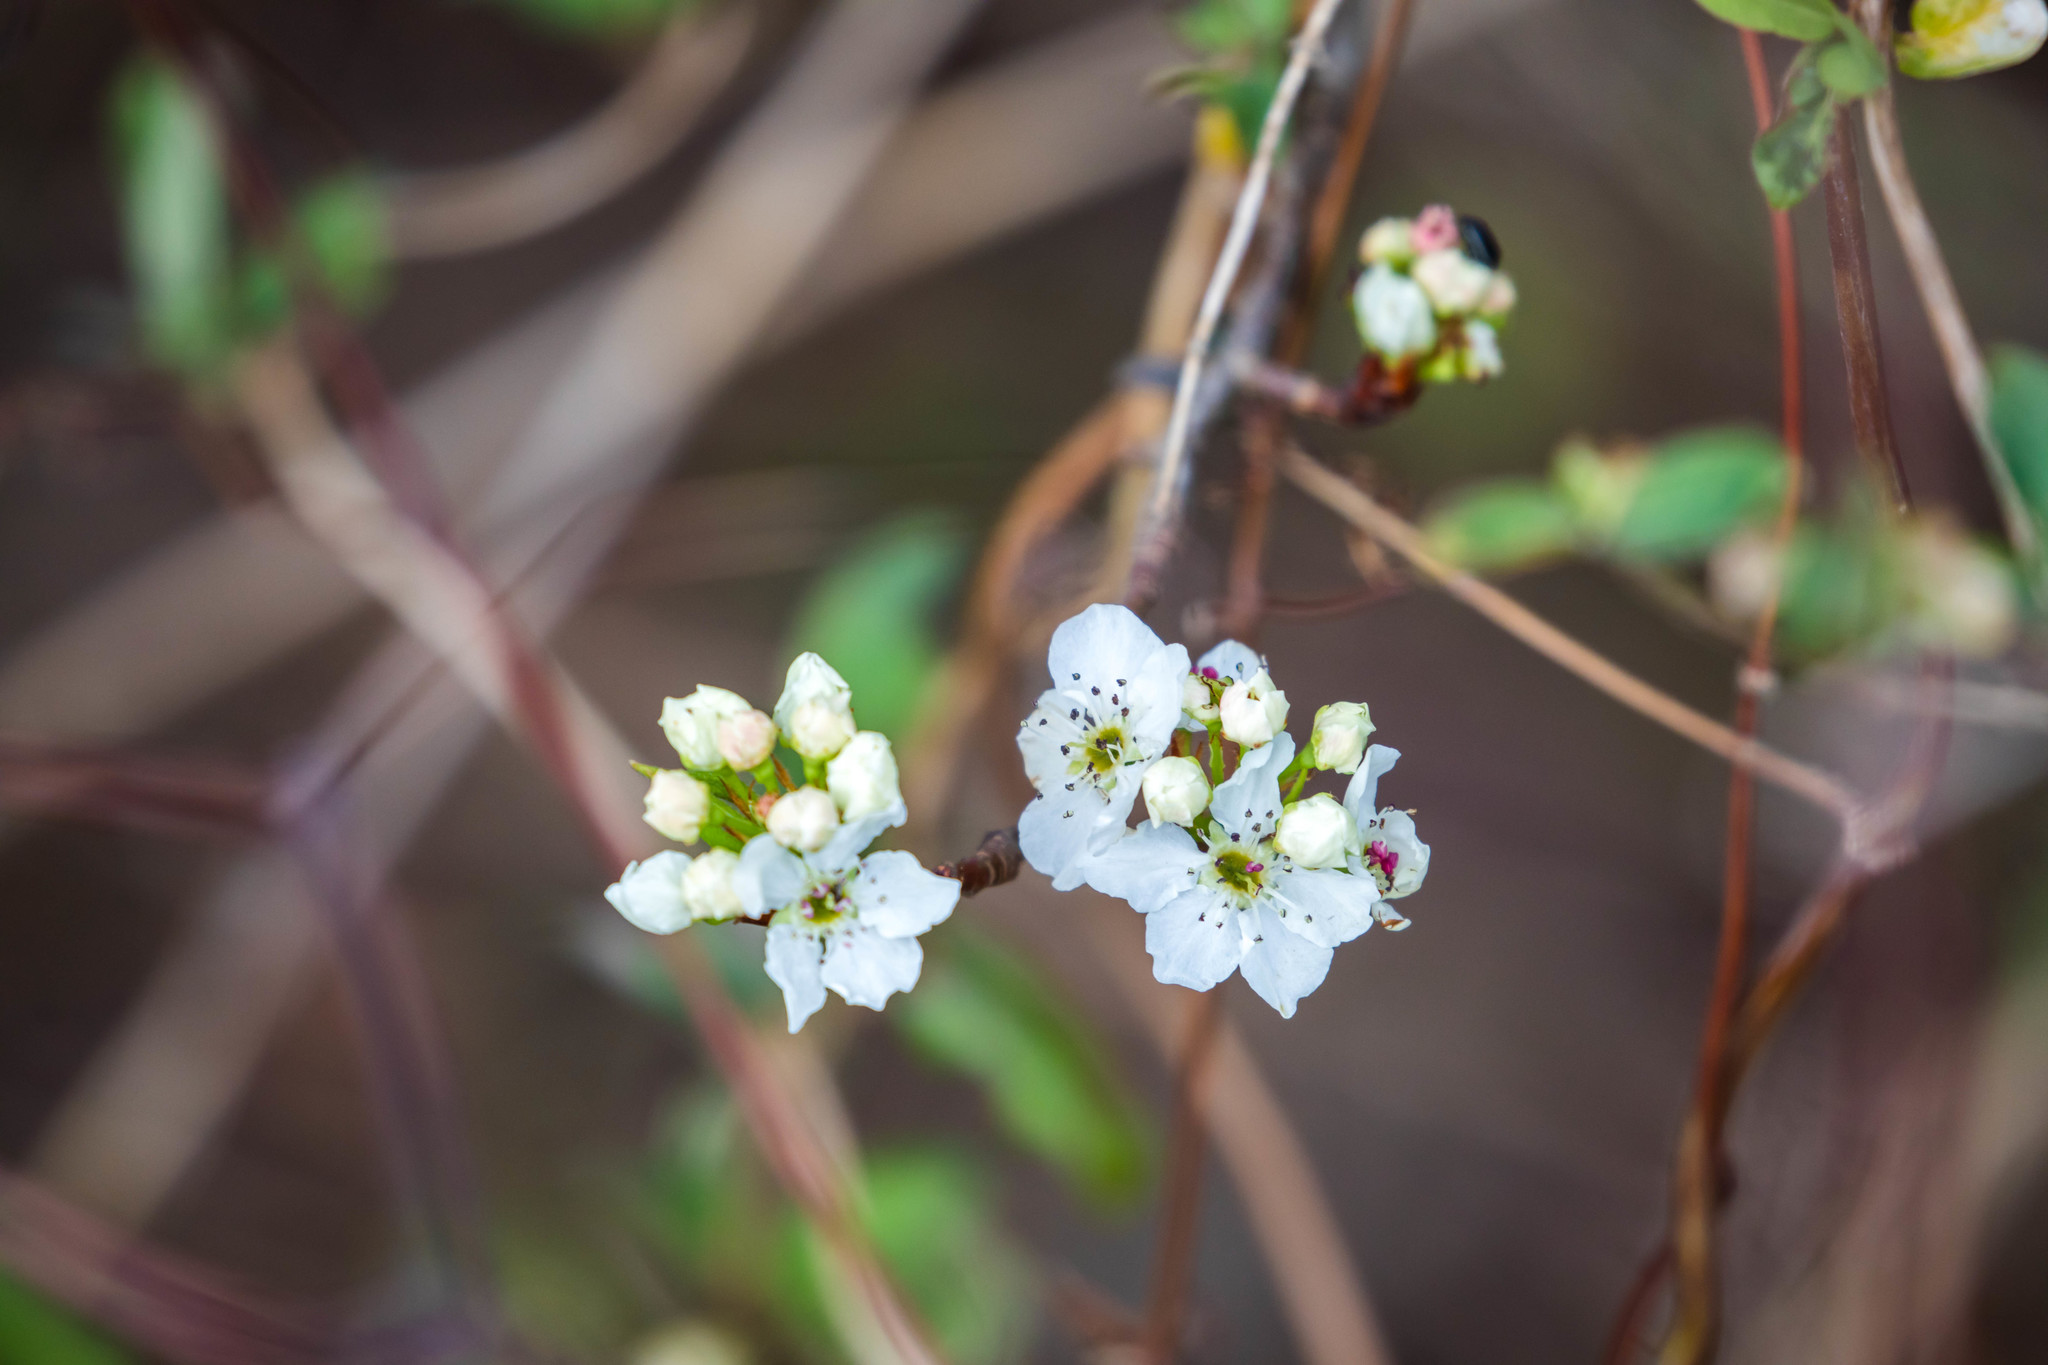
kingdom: Plantae
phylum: Tracheophyta
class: Magnoliopsida
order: Rosales
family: Rosaceae
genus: Pyrus
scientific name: Pyrus calleryana
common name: Callery pear
